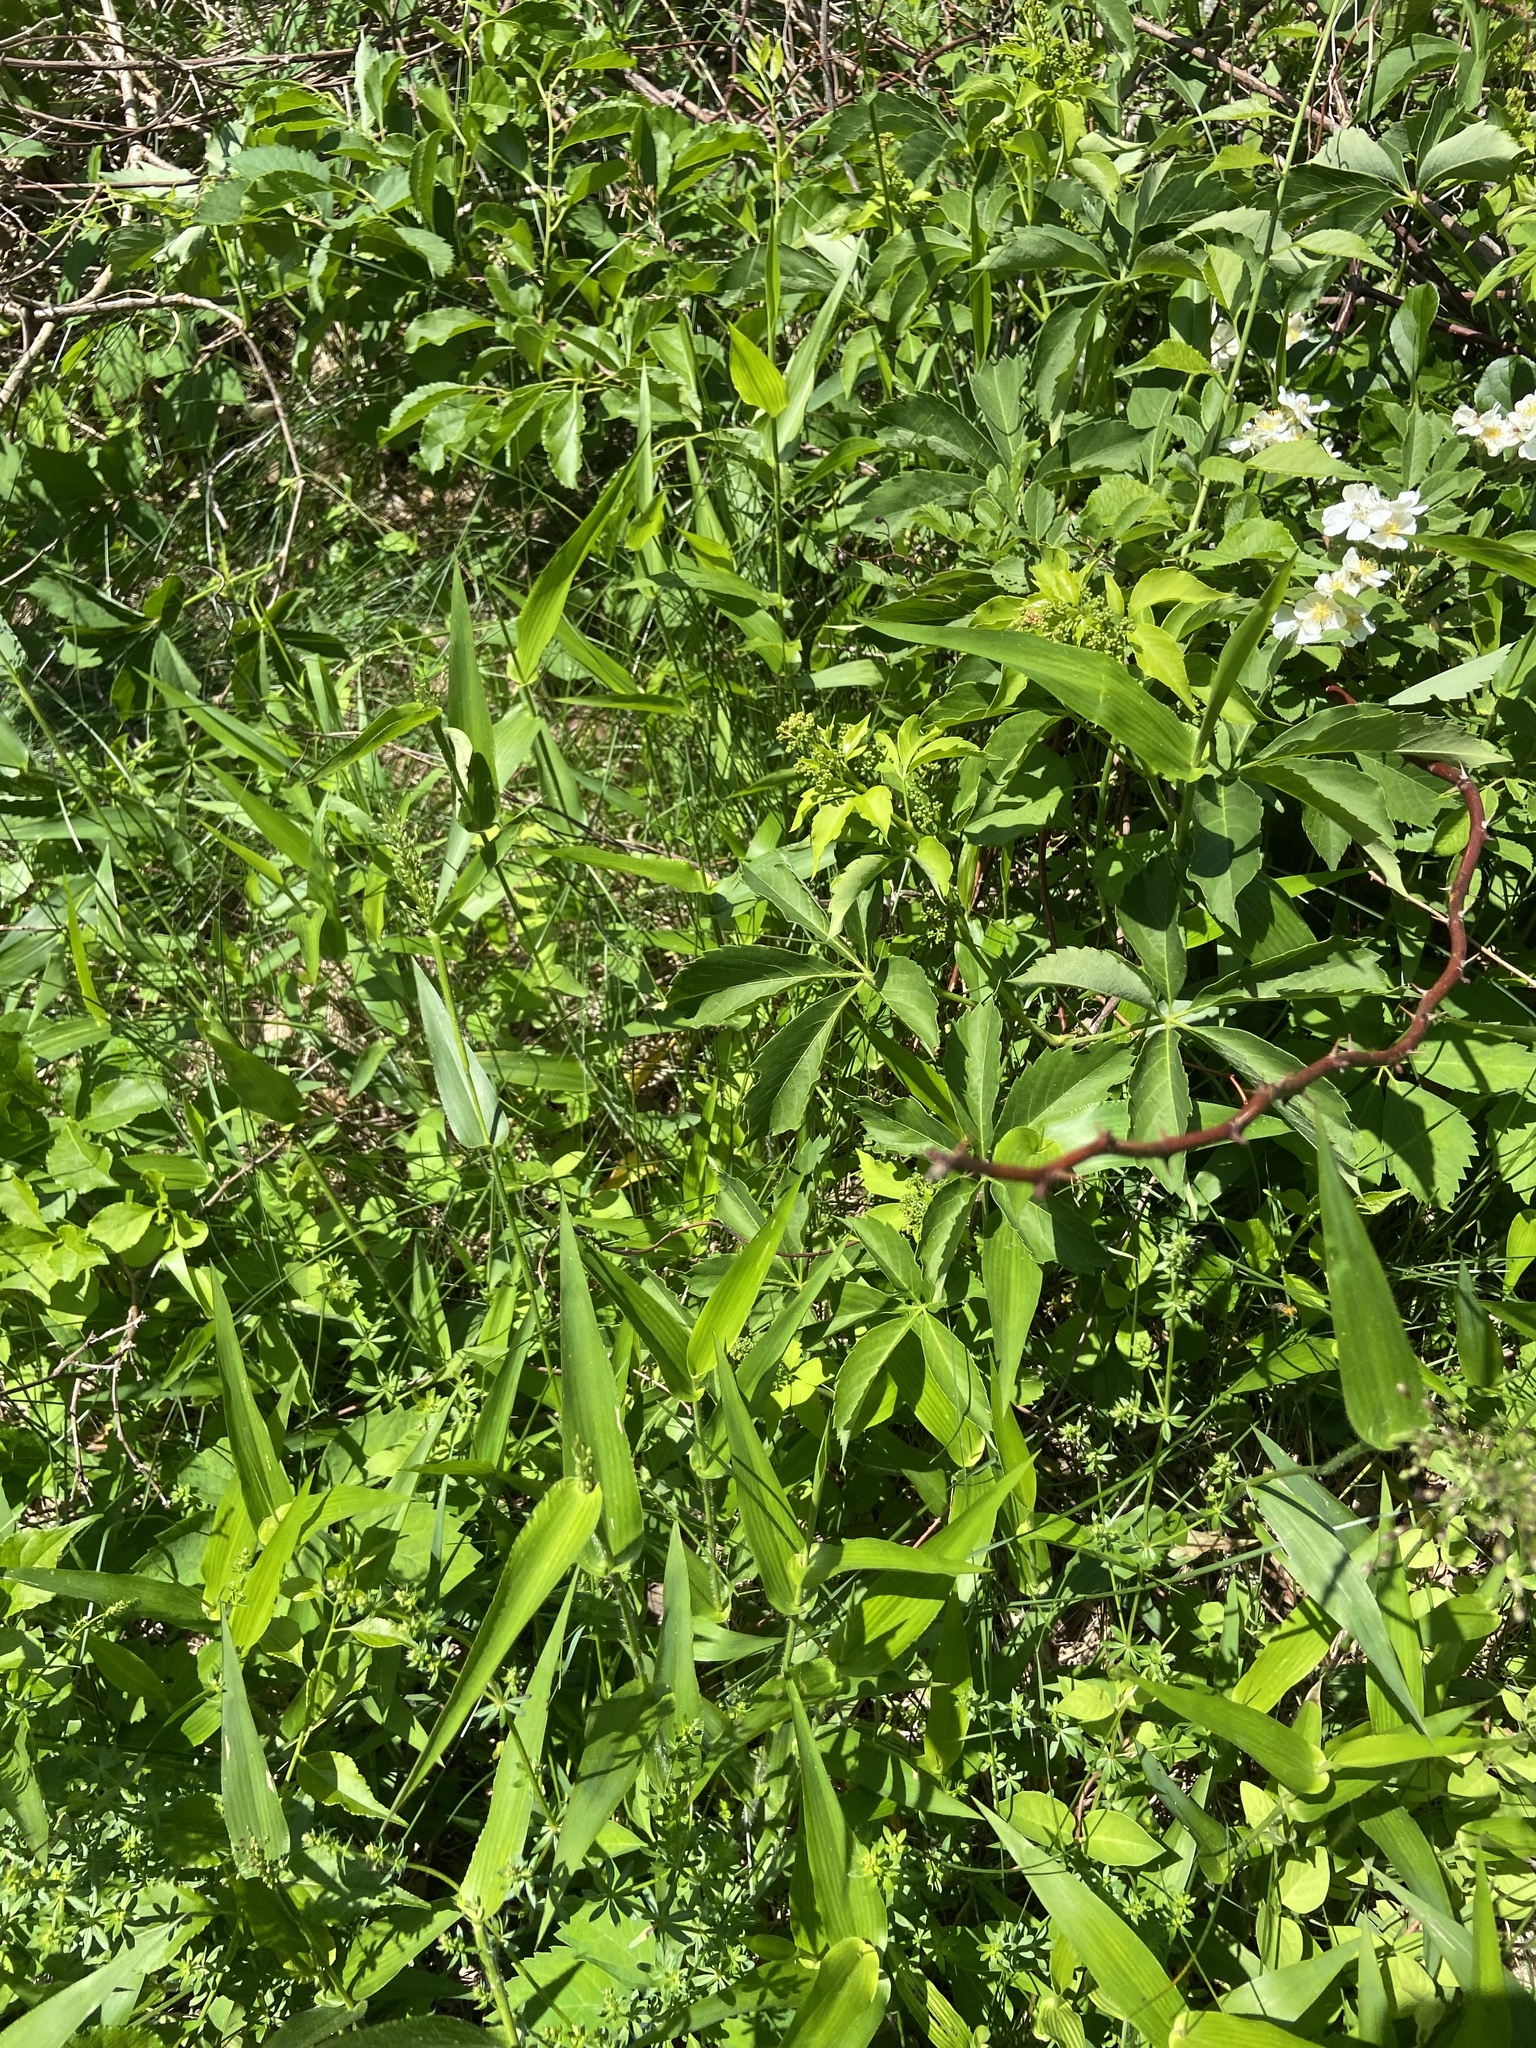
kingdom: Plantae
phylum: Tracheophyta
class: Magnoliopsida
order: Vitales
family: Vitaceae
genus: Parthenocissus
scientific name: Parthenocissus quinquefolia
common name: Virginia-creeper
